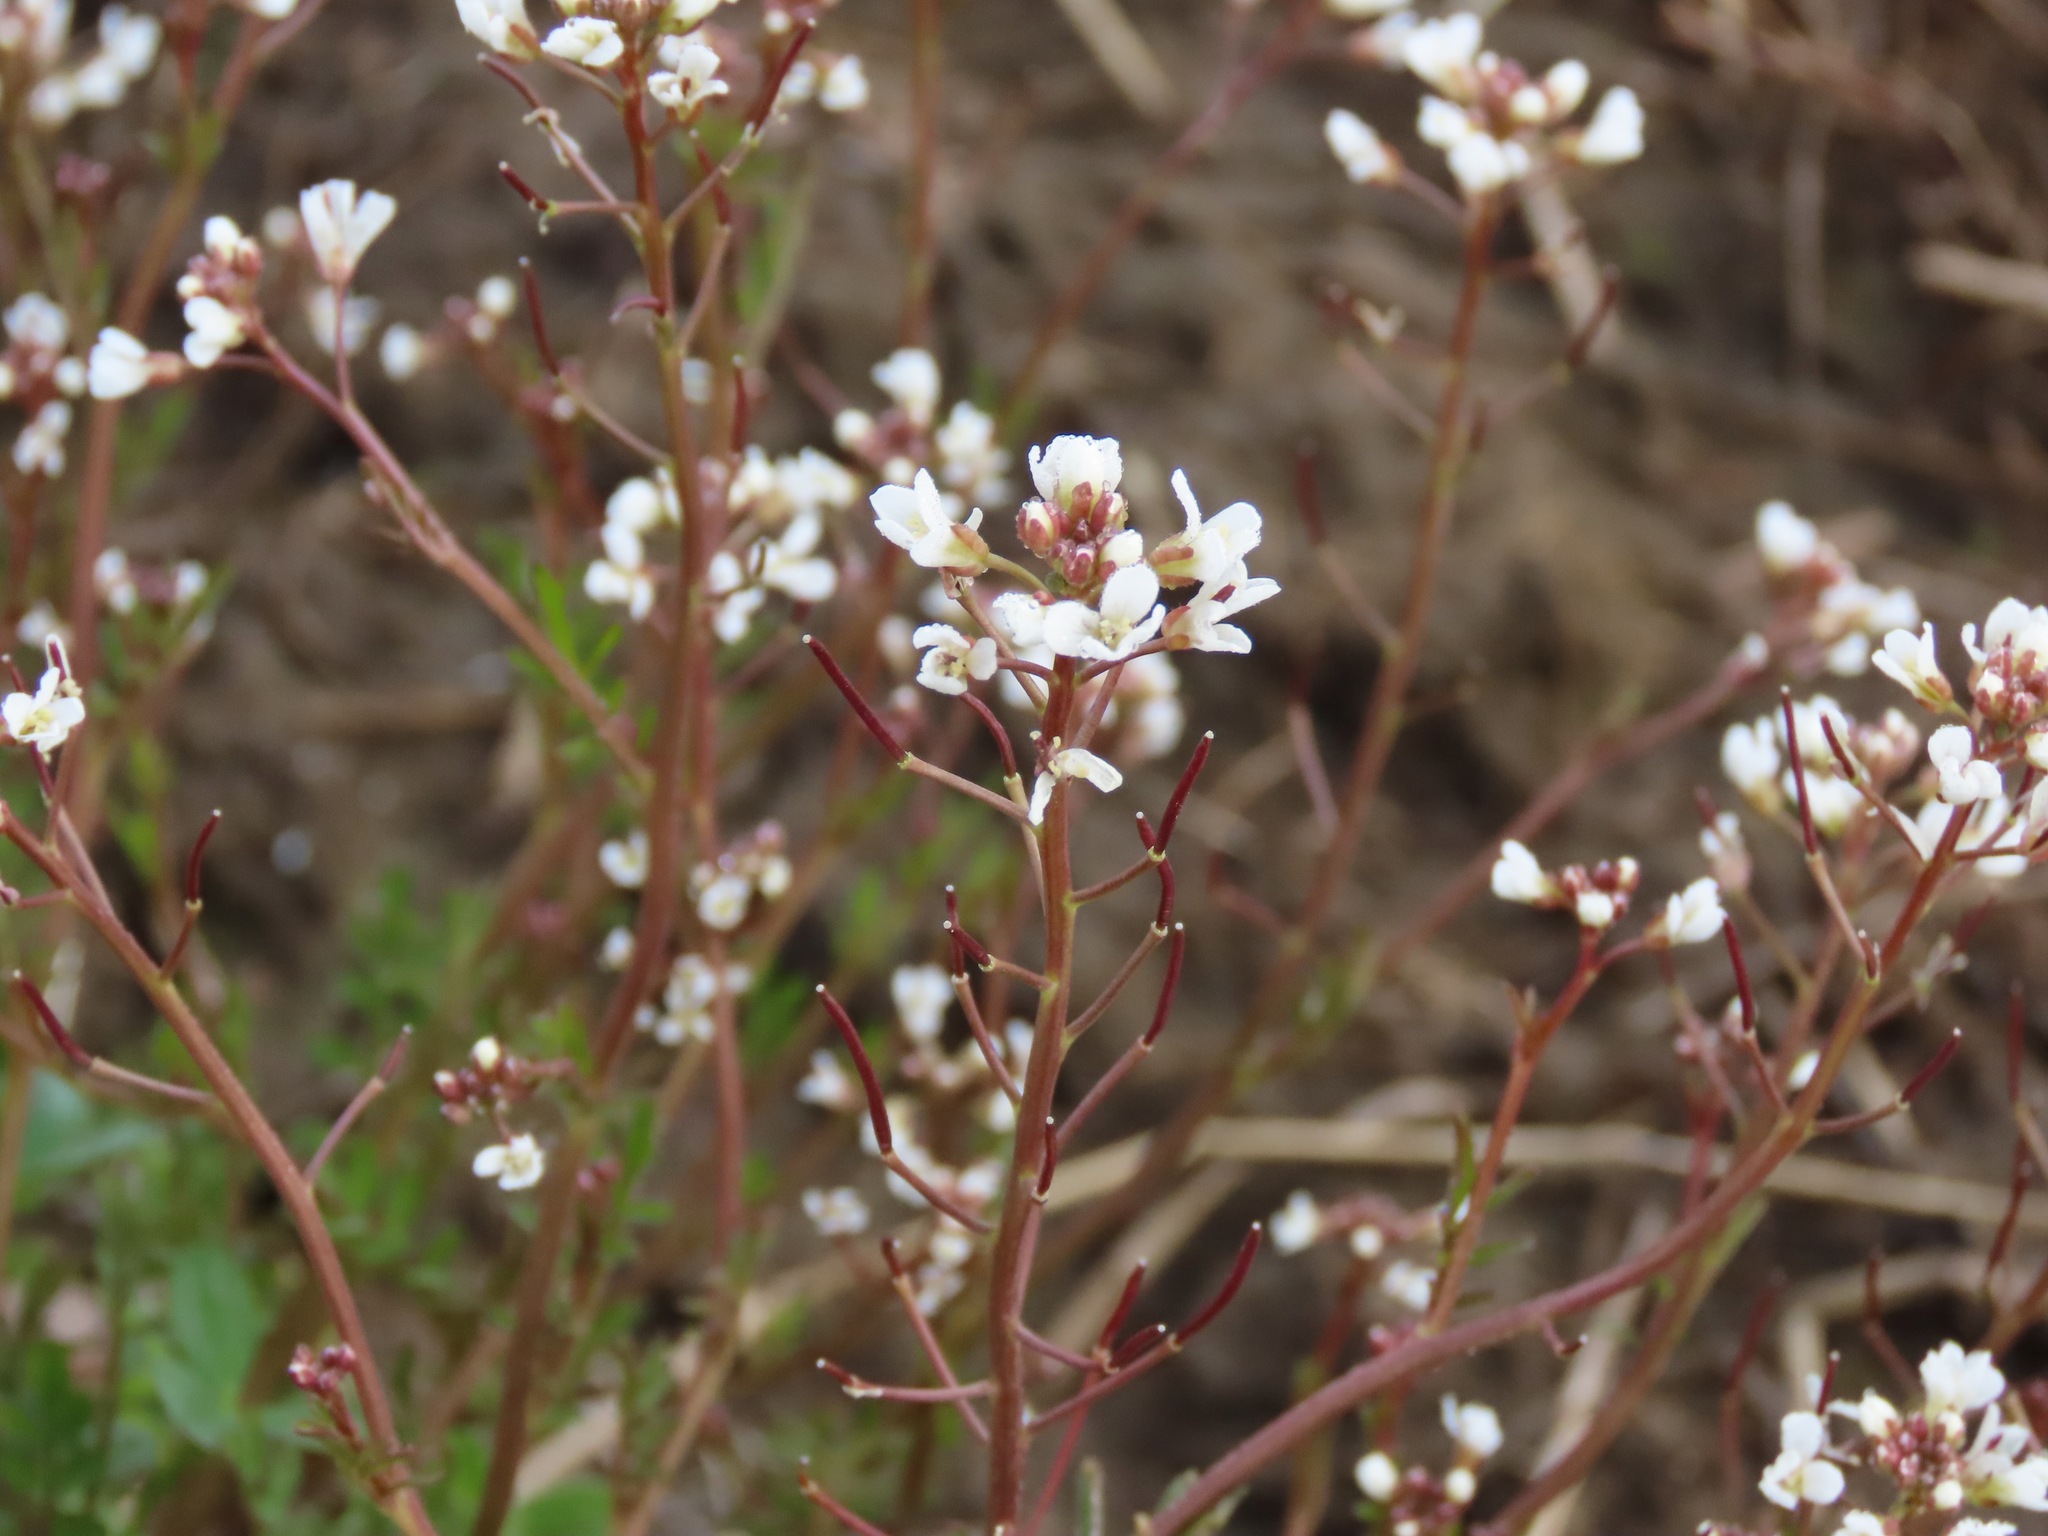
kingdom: Plantae
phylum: Tracheophyta
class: Magnoliopsida
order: Brassicales
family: Brassicaceae
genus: Cardamine
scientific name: Cardamine occulta
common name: Asian wavy bittercress
